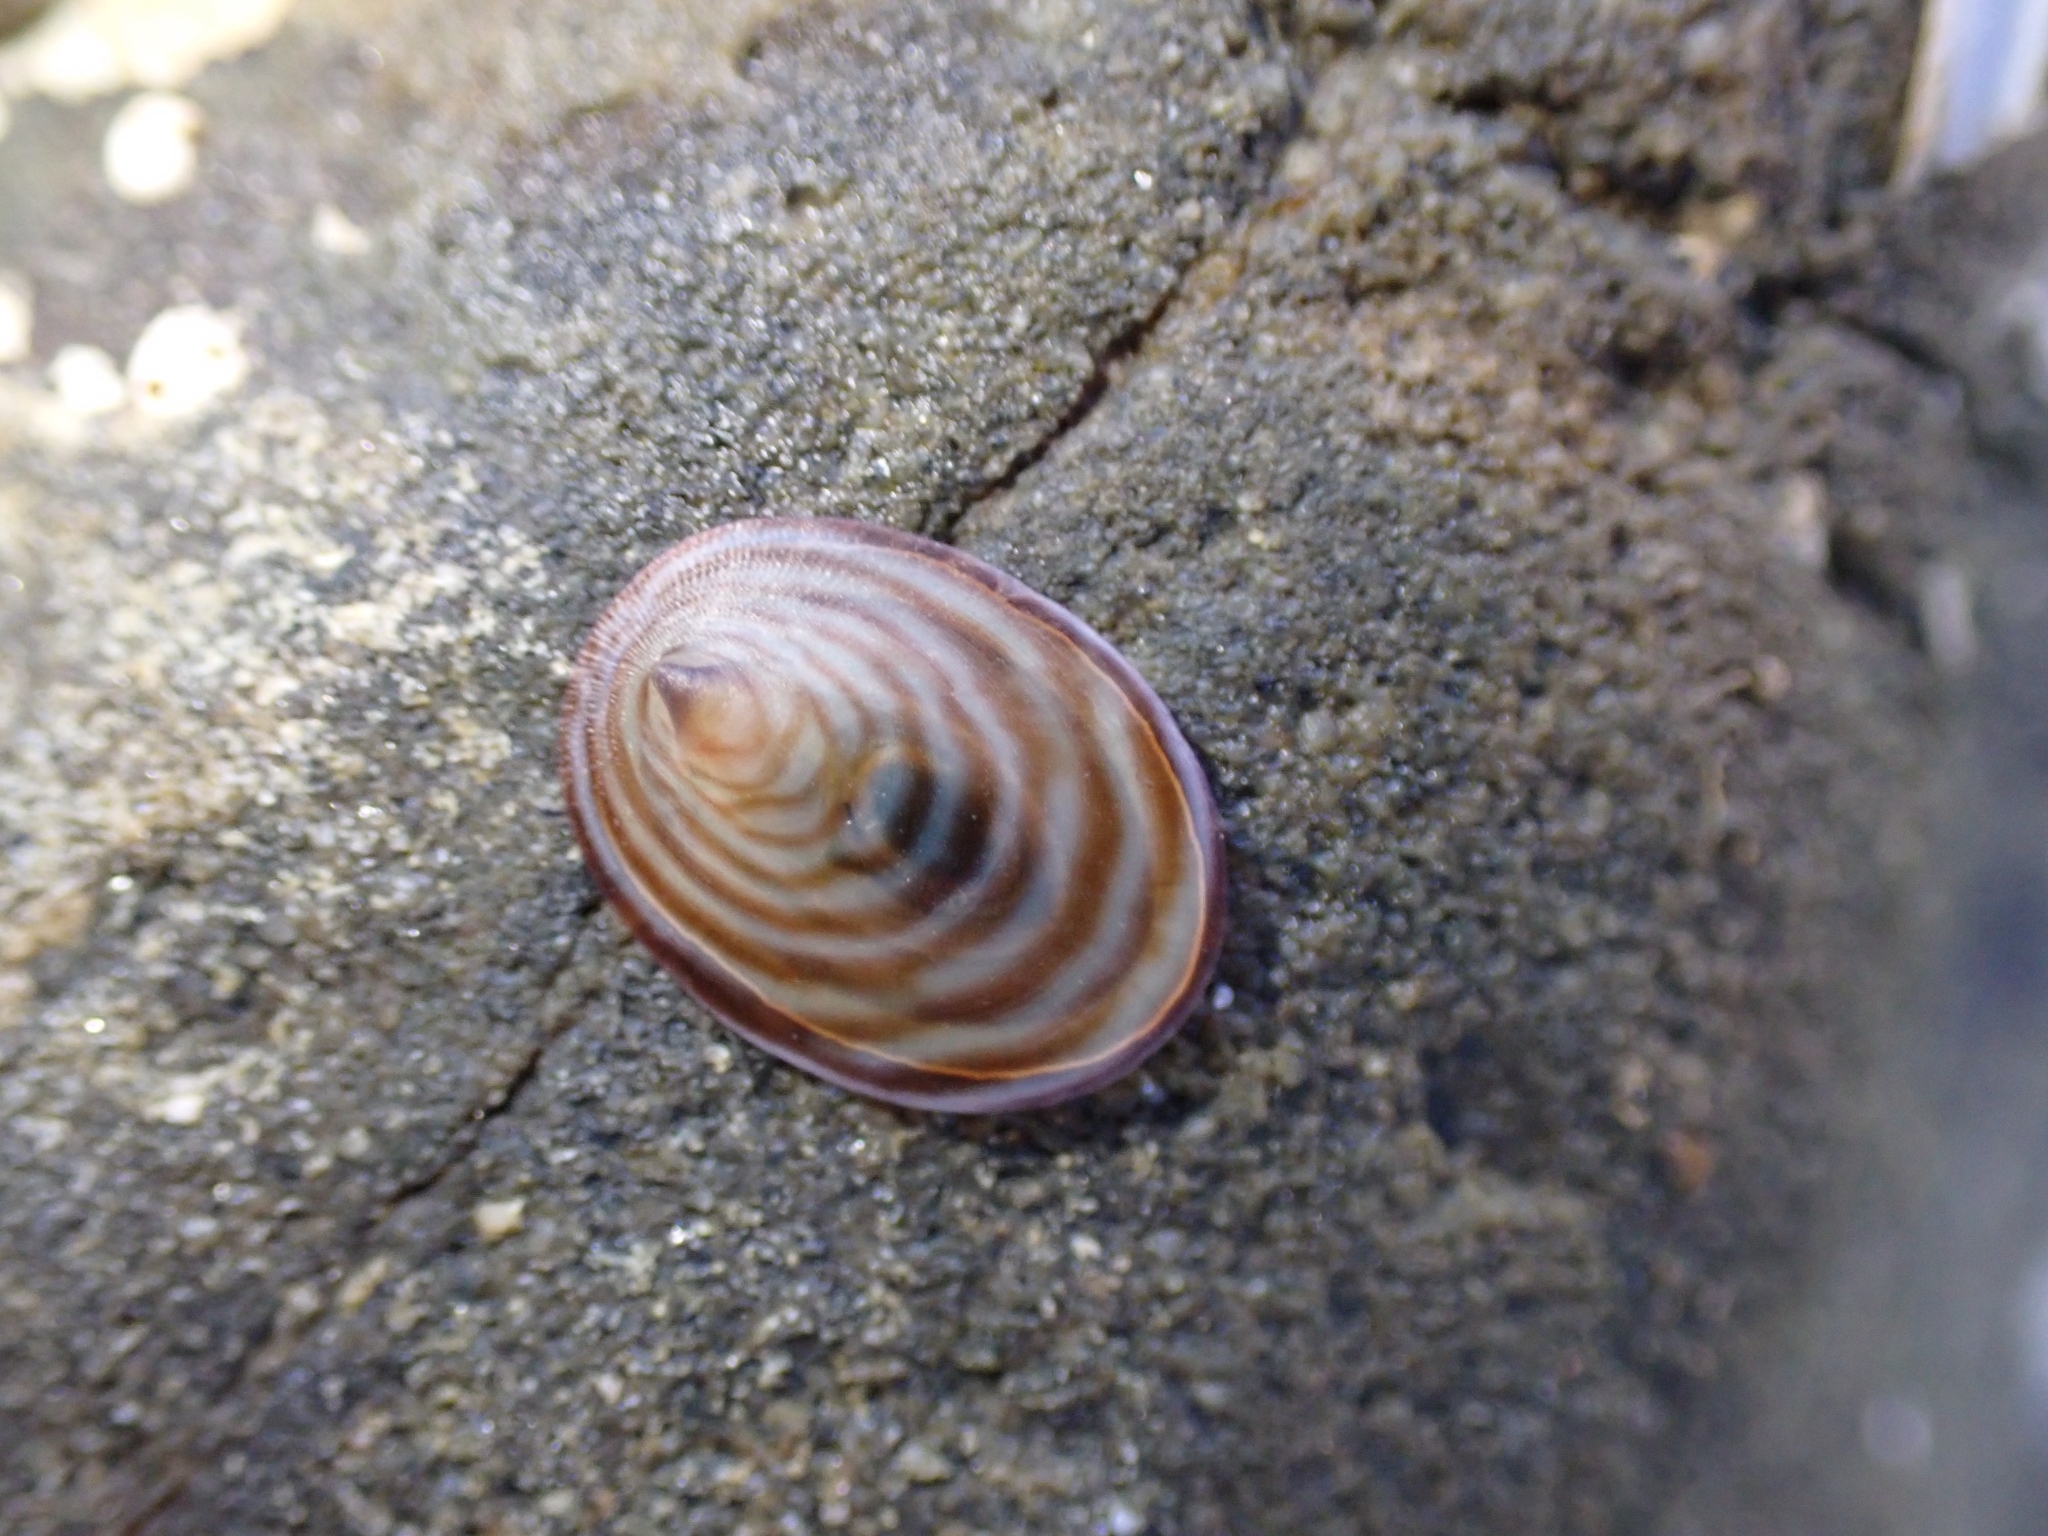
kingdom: Animalia
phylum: Mollusca
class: Gastropoda
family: Lottiidae
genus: Atalacmea
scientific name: Atalacmea fragilis
